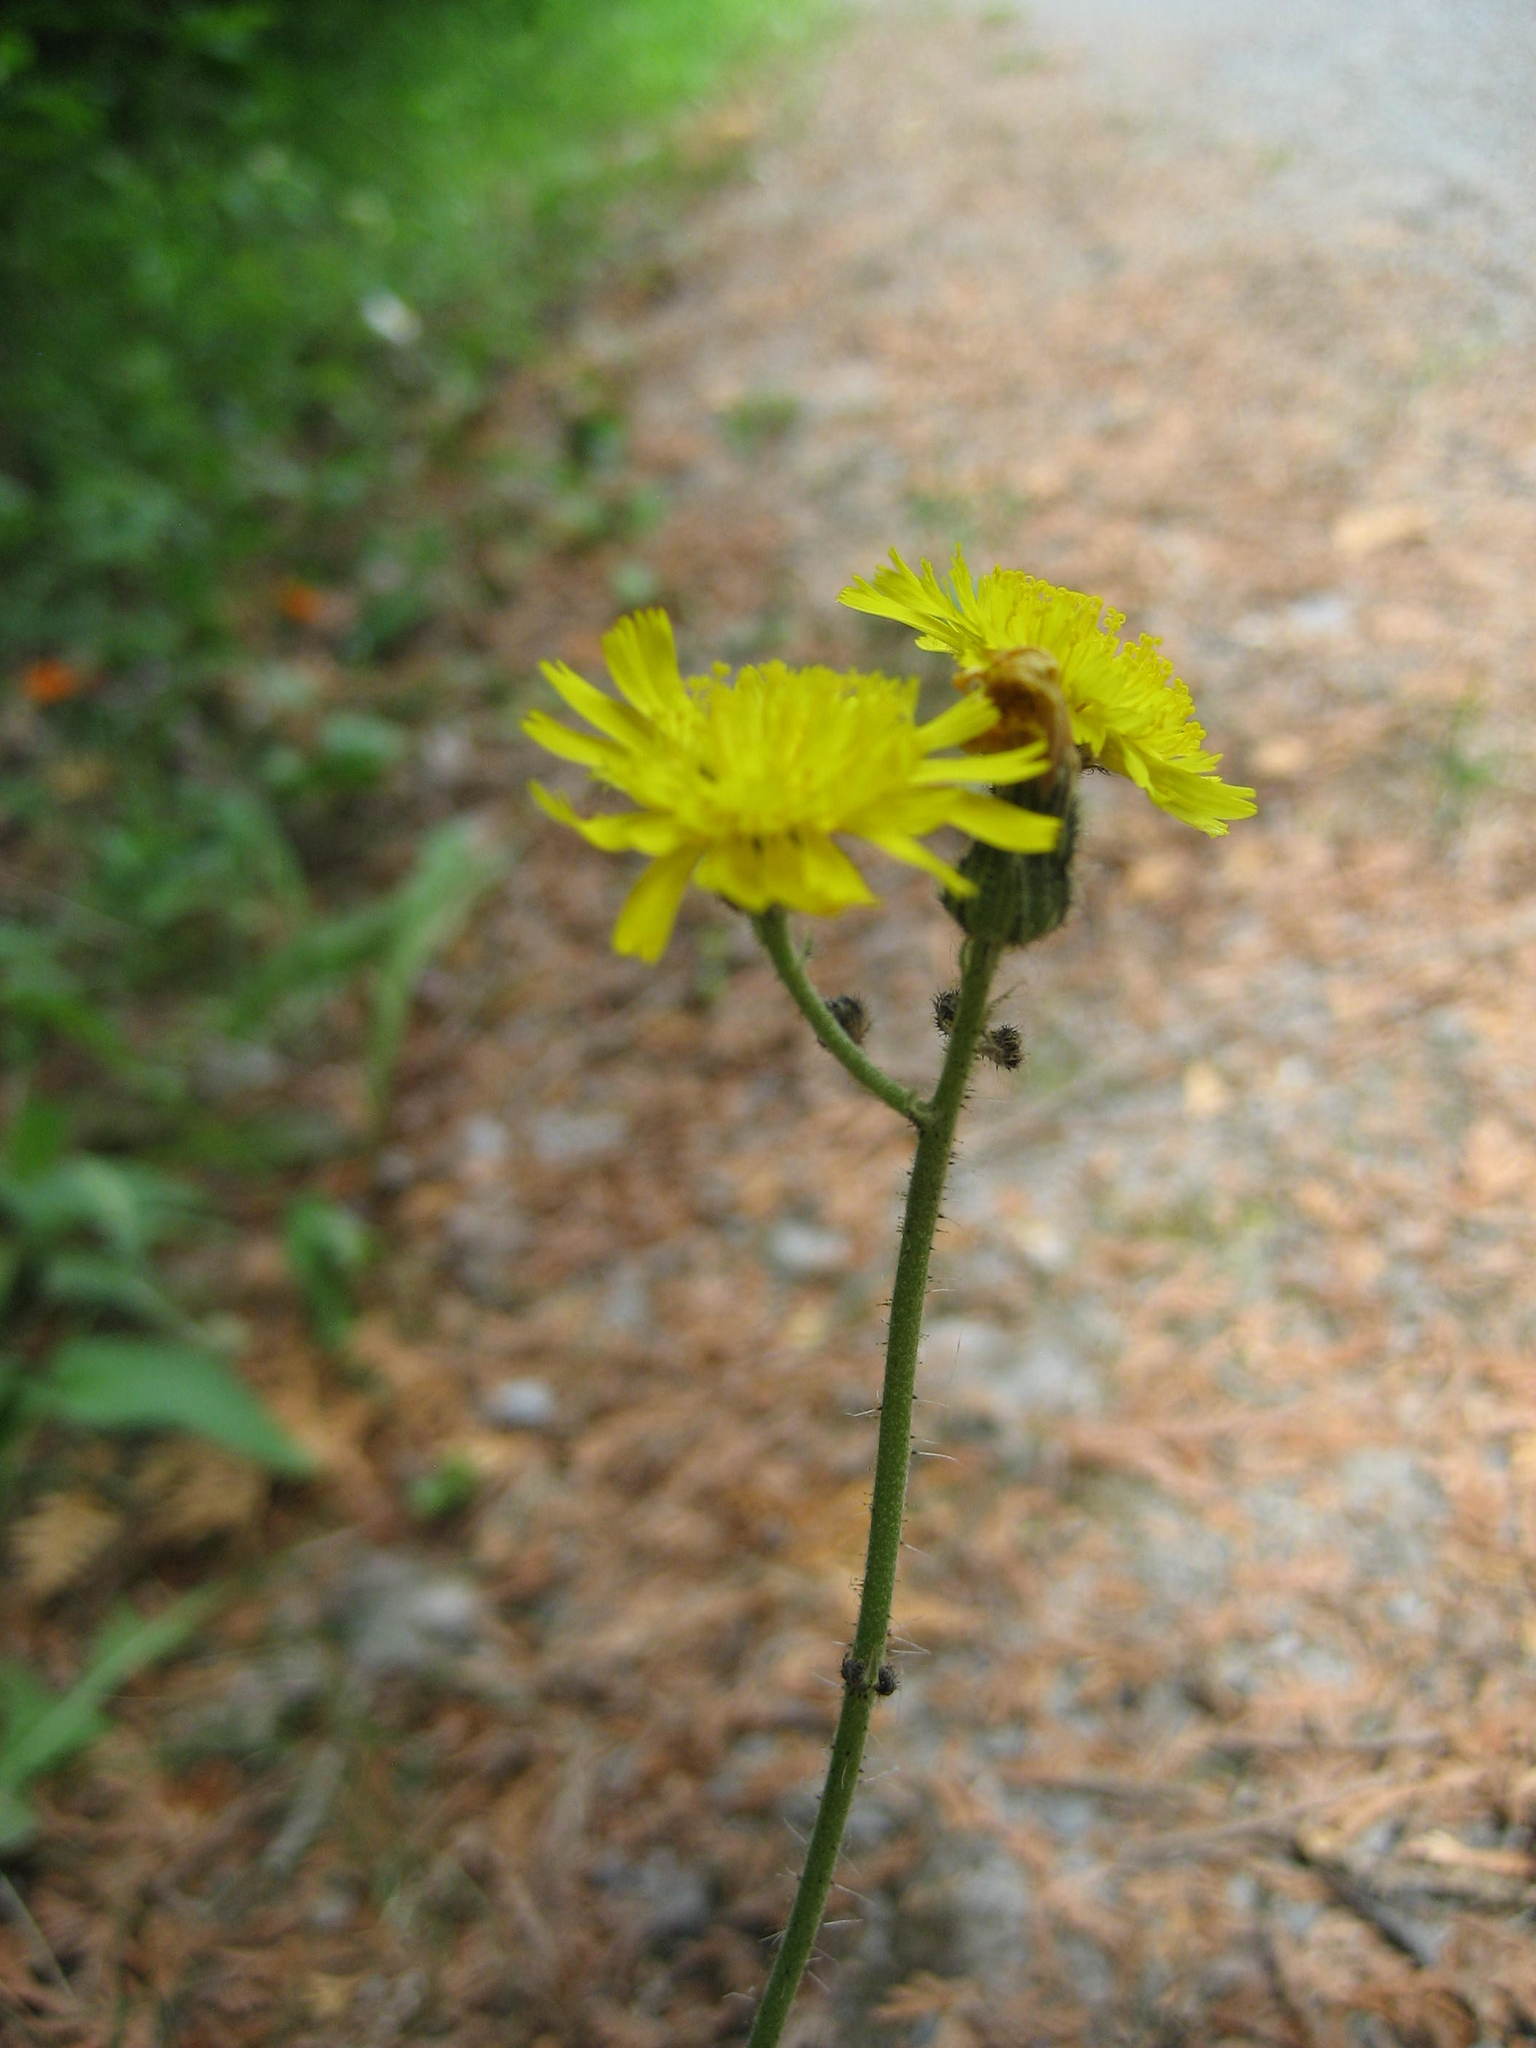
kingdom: Plantae
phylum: Tracheophyta
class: Magnoliopsida
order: Asterales
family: Asteraceae
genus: Pilosella
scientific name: Pilosella piloselloides
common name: Glaucous king-devil
